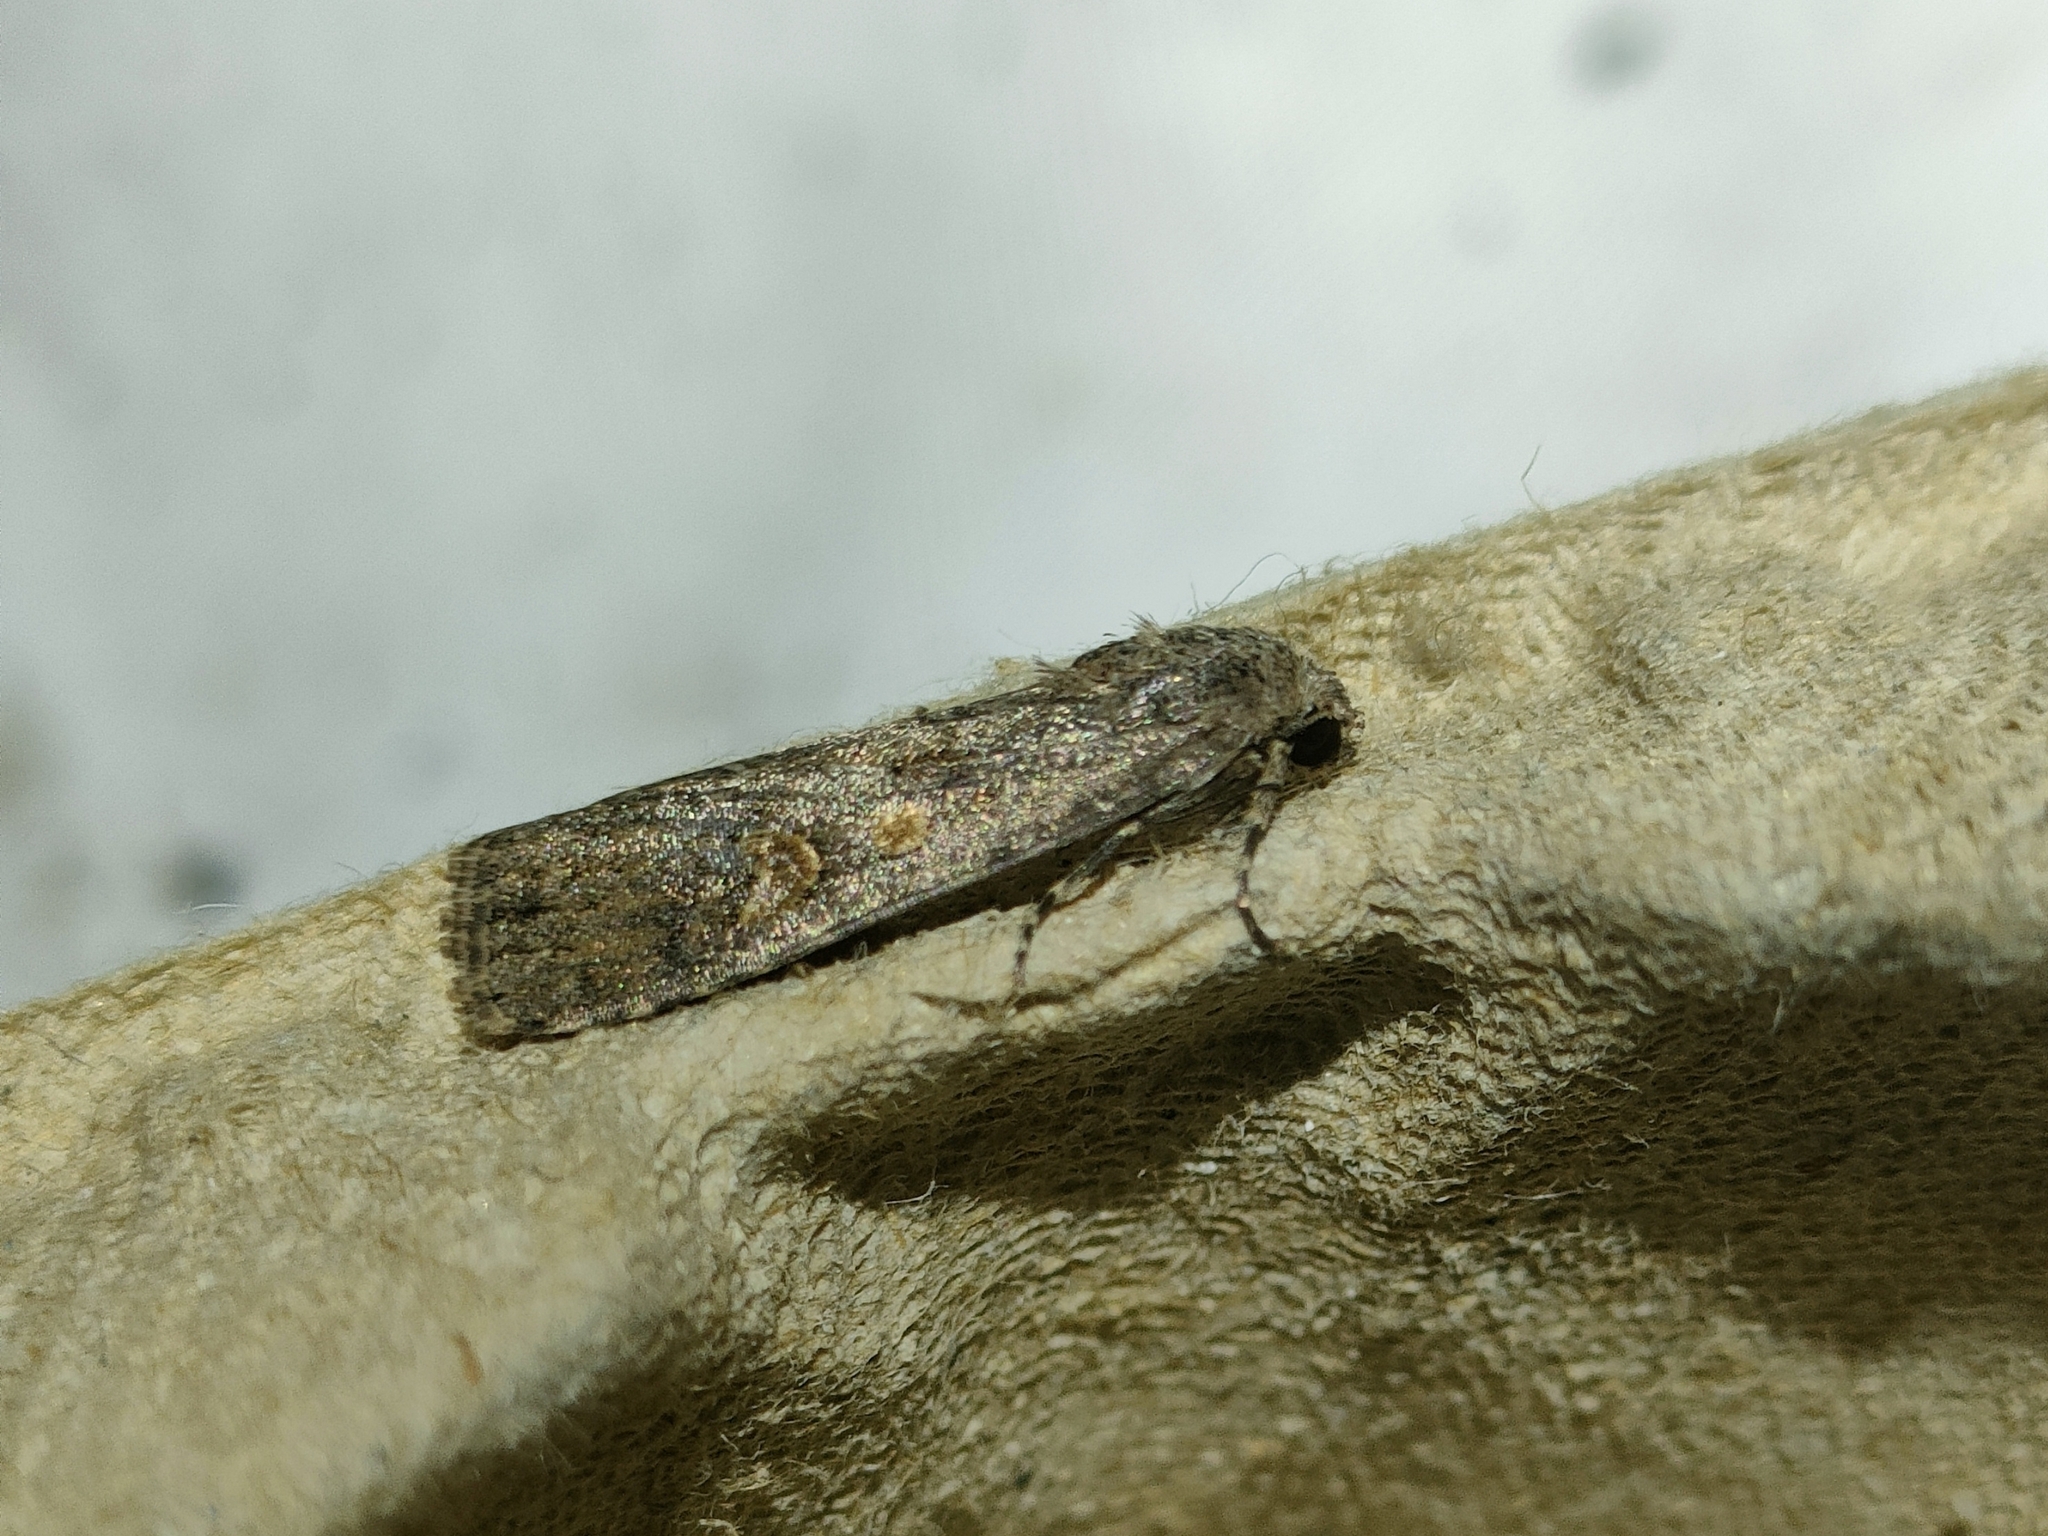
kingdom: Animalia
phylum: Arthropoda
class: Insecta
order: Lepidoptera
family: Noctuidae
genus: Spodoptera
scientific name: Spodoptera exigua
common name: Beet armyworm
